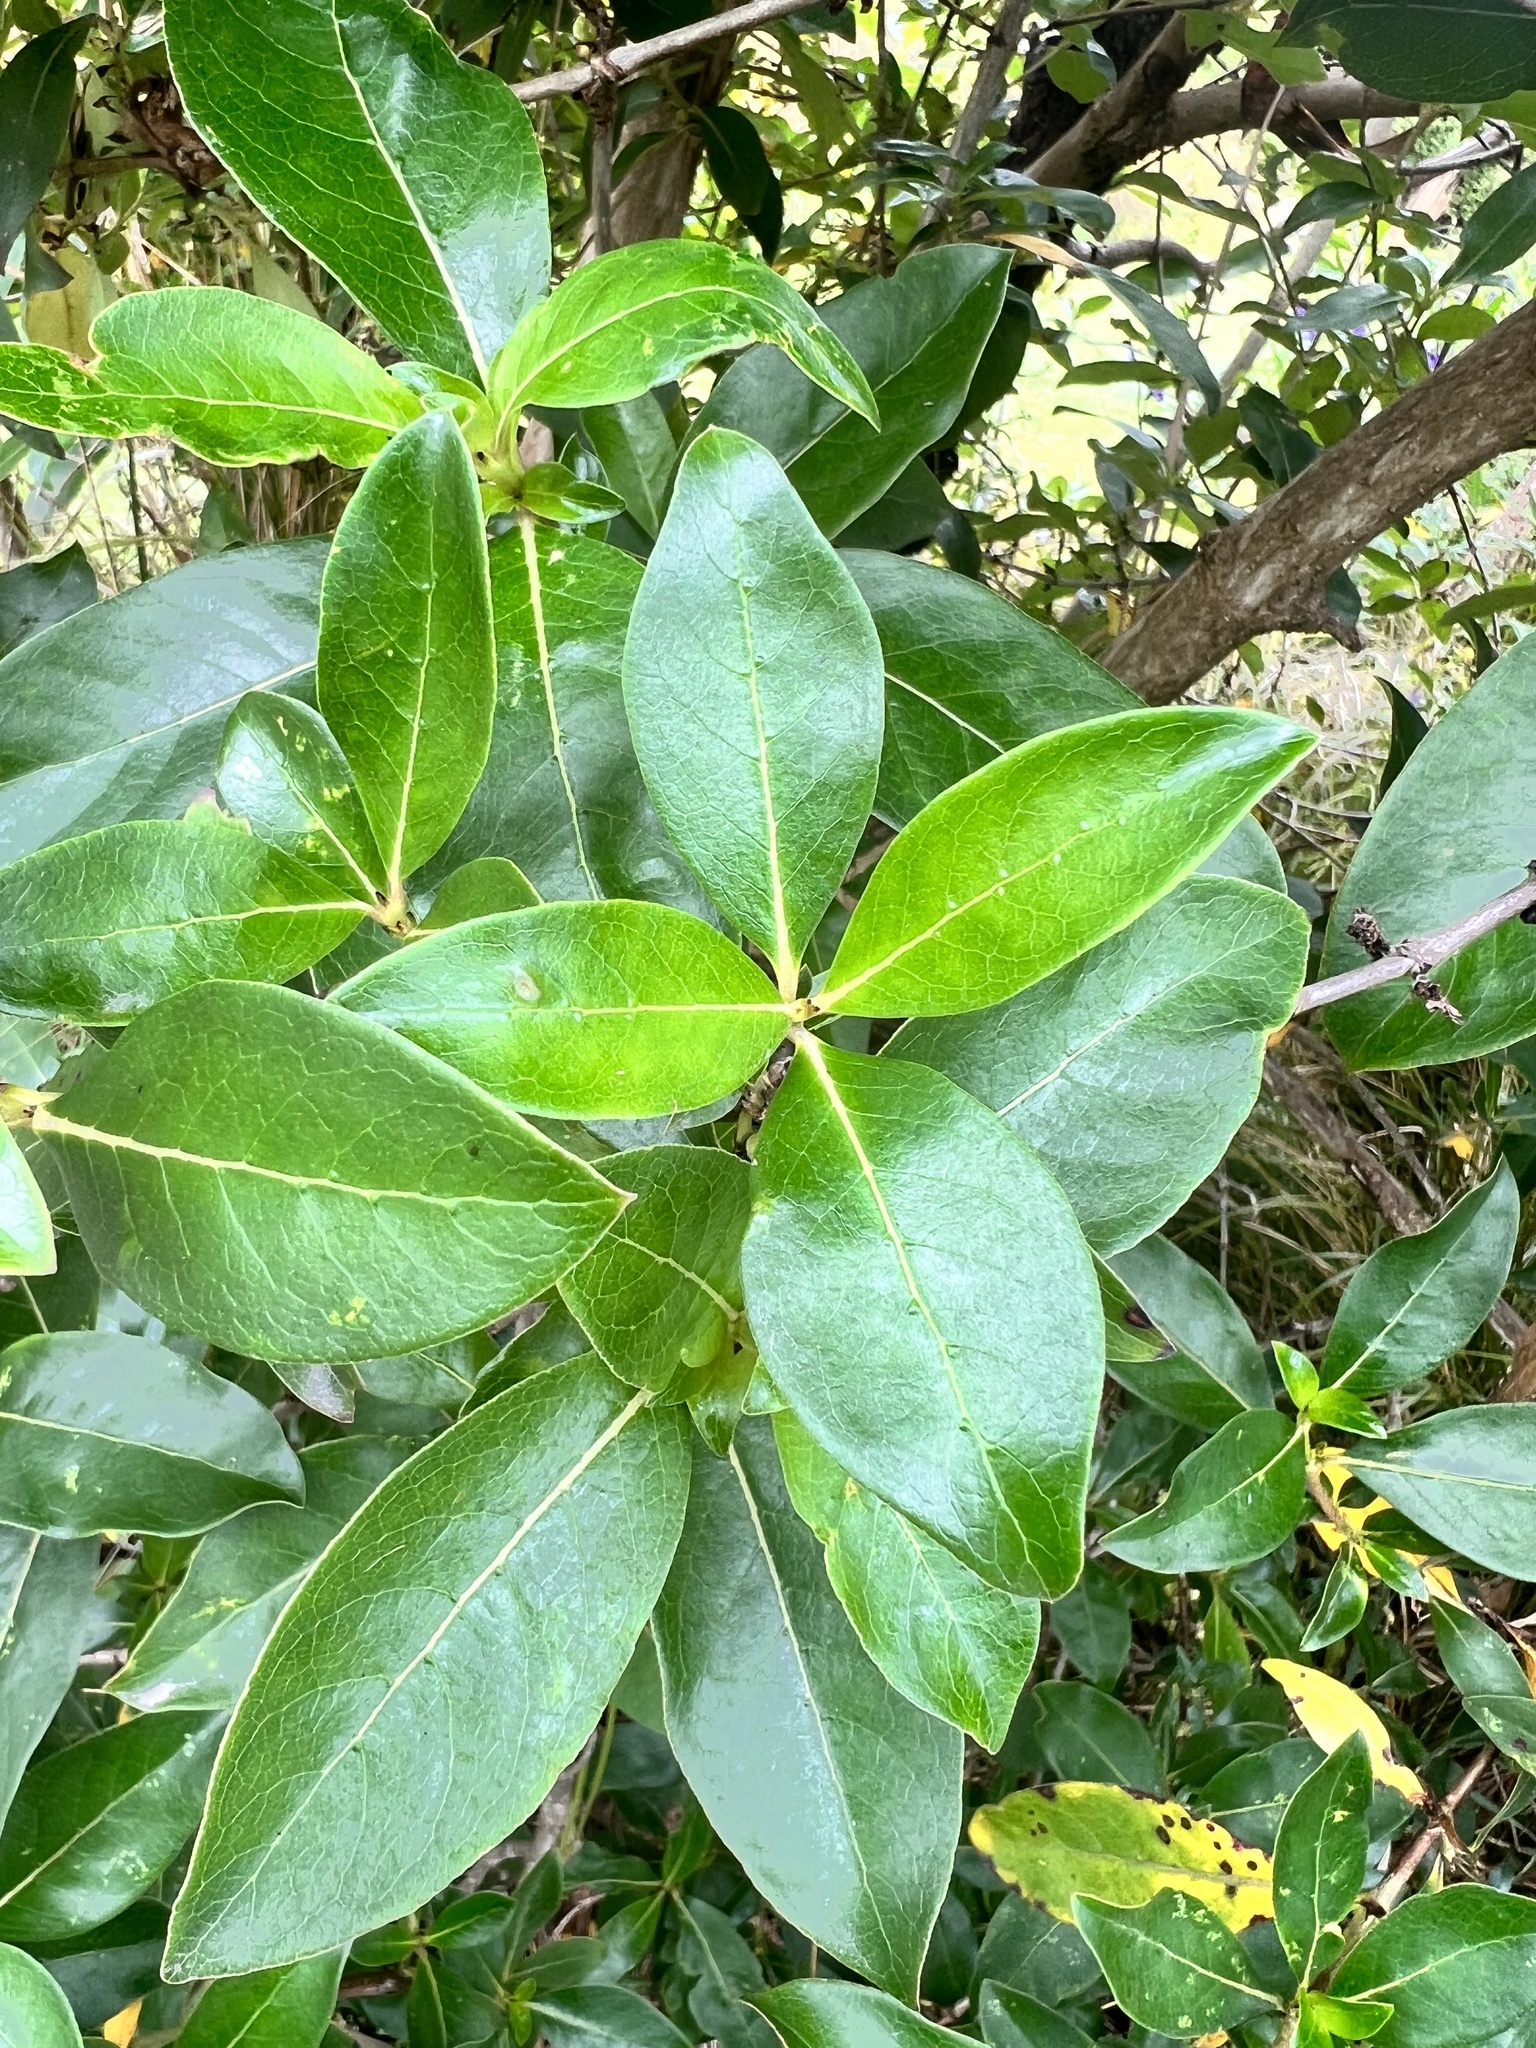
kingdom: Plantae
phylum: Tracheophyta
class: Magnoliopsida
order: Gentianales
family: Rubiaceae
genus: Coprosma
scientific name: Coprosma robusta
